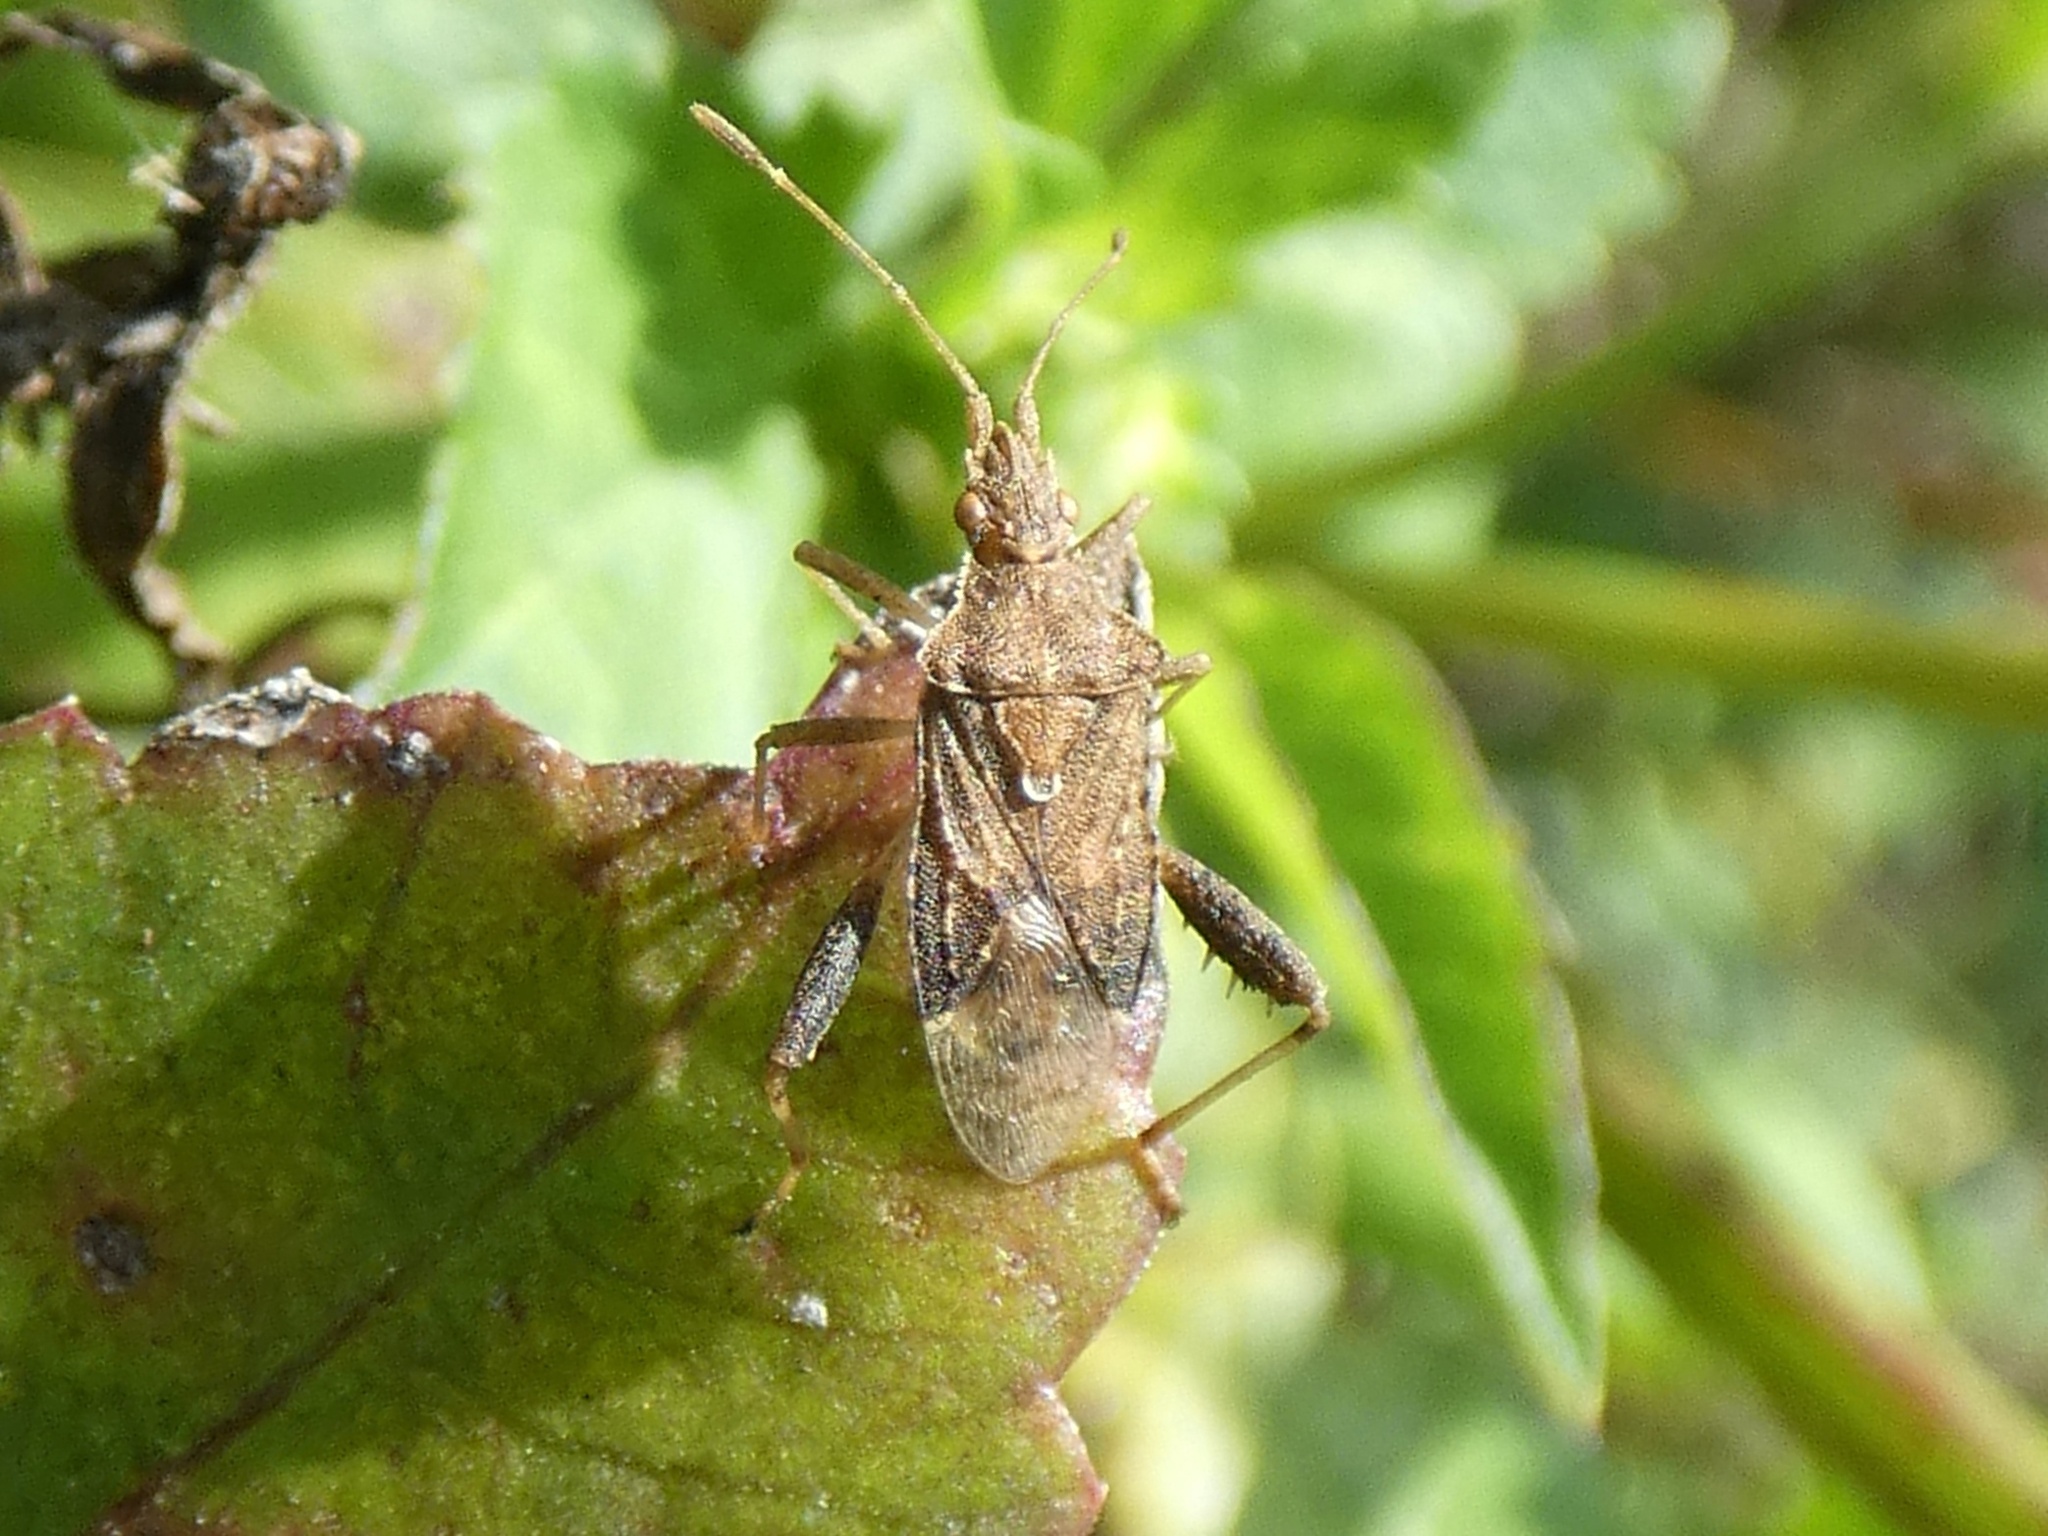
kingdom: Animalia
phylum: Arthropoda
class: Insecta
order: Hemiptera
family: Rhopalidae
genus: Harmostes
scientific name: Harmostes serratus
